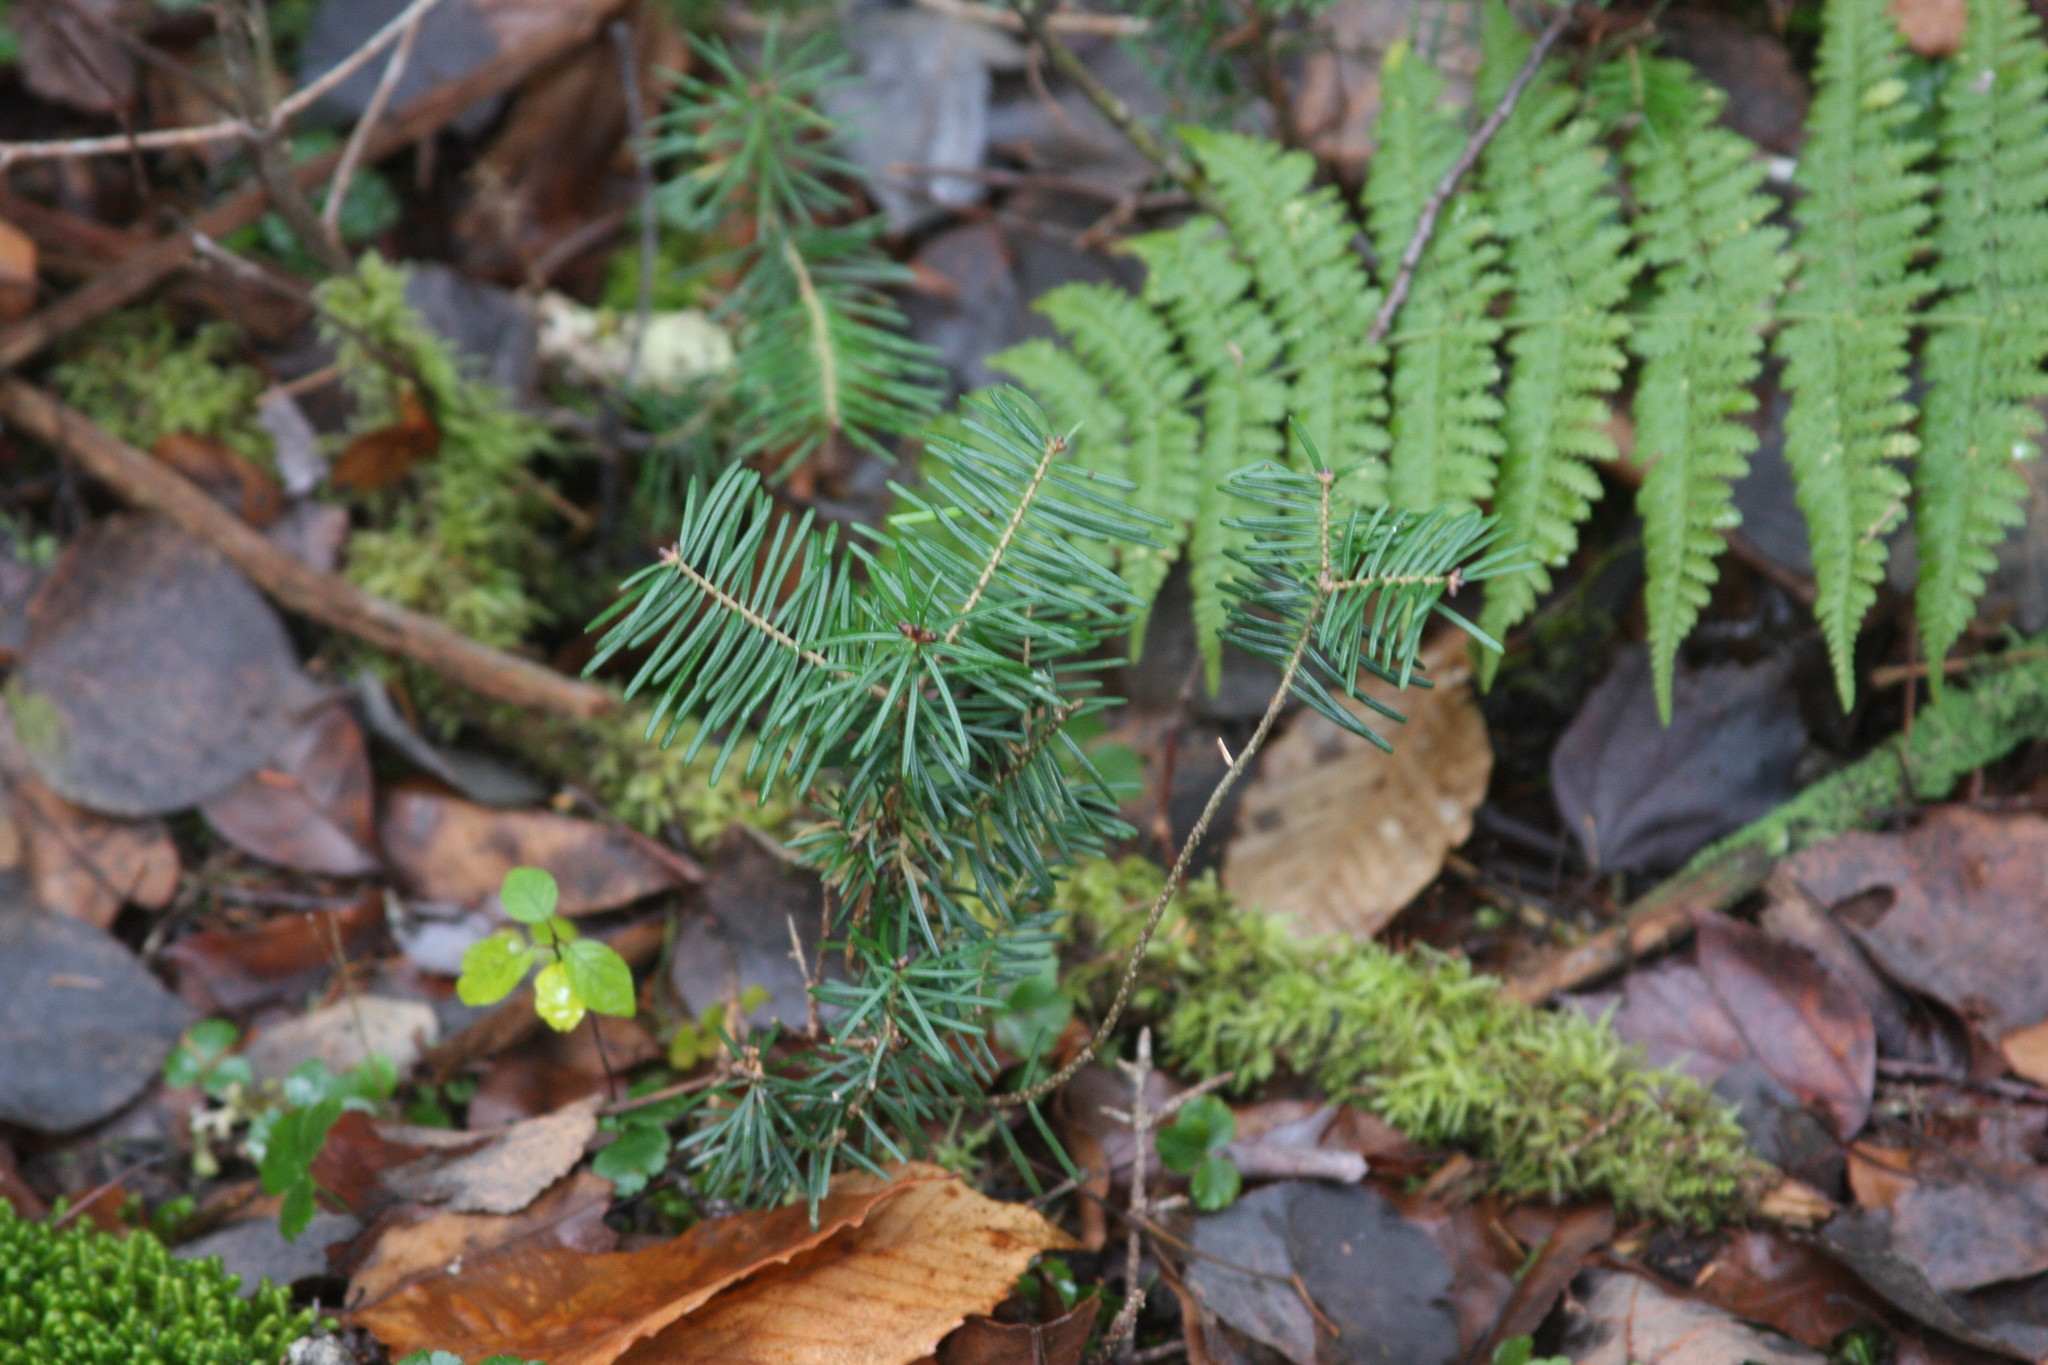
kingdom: Plantae
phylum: Tracheophyta
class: Pinopsida
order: Pinales
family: Pinaceae
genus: Abies
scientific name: Abies balsamea
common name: Balsam fir
